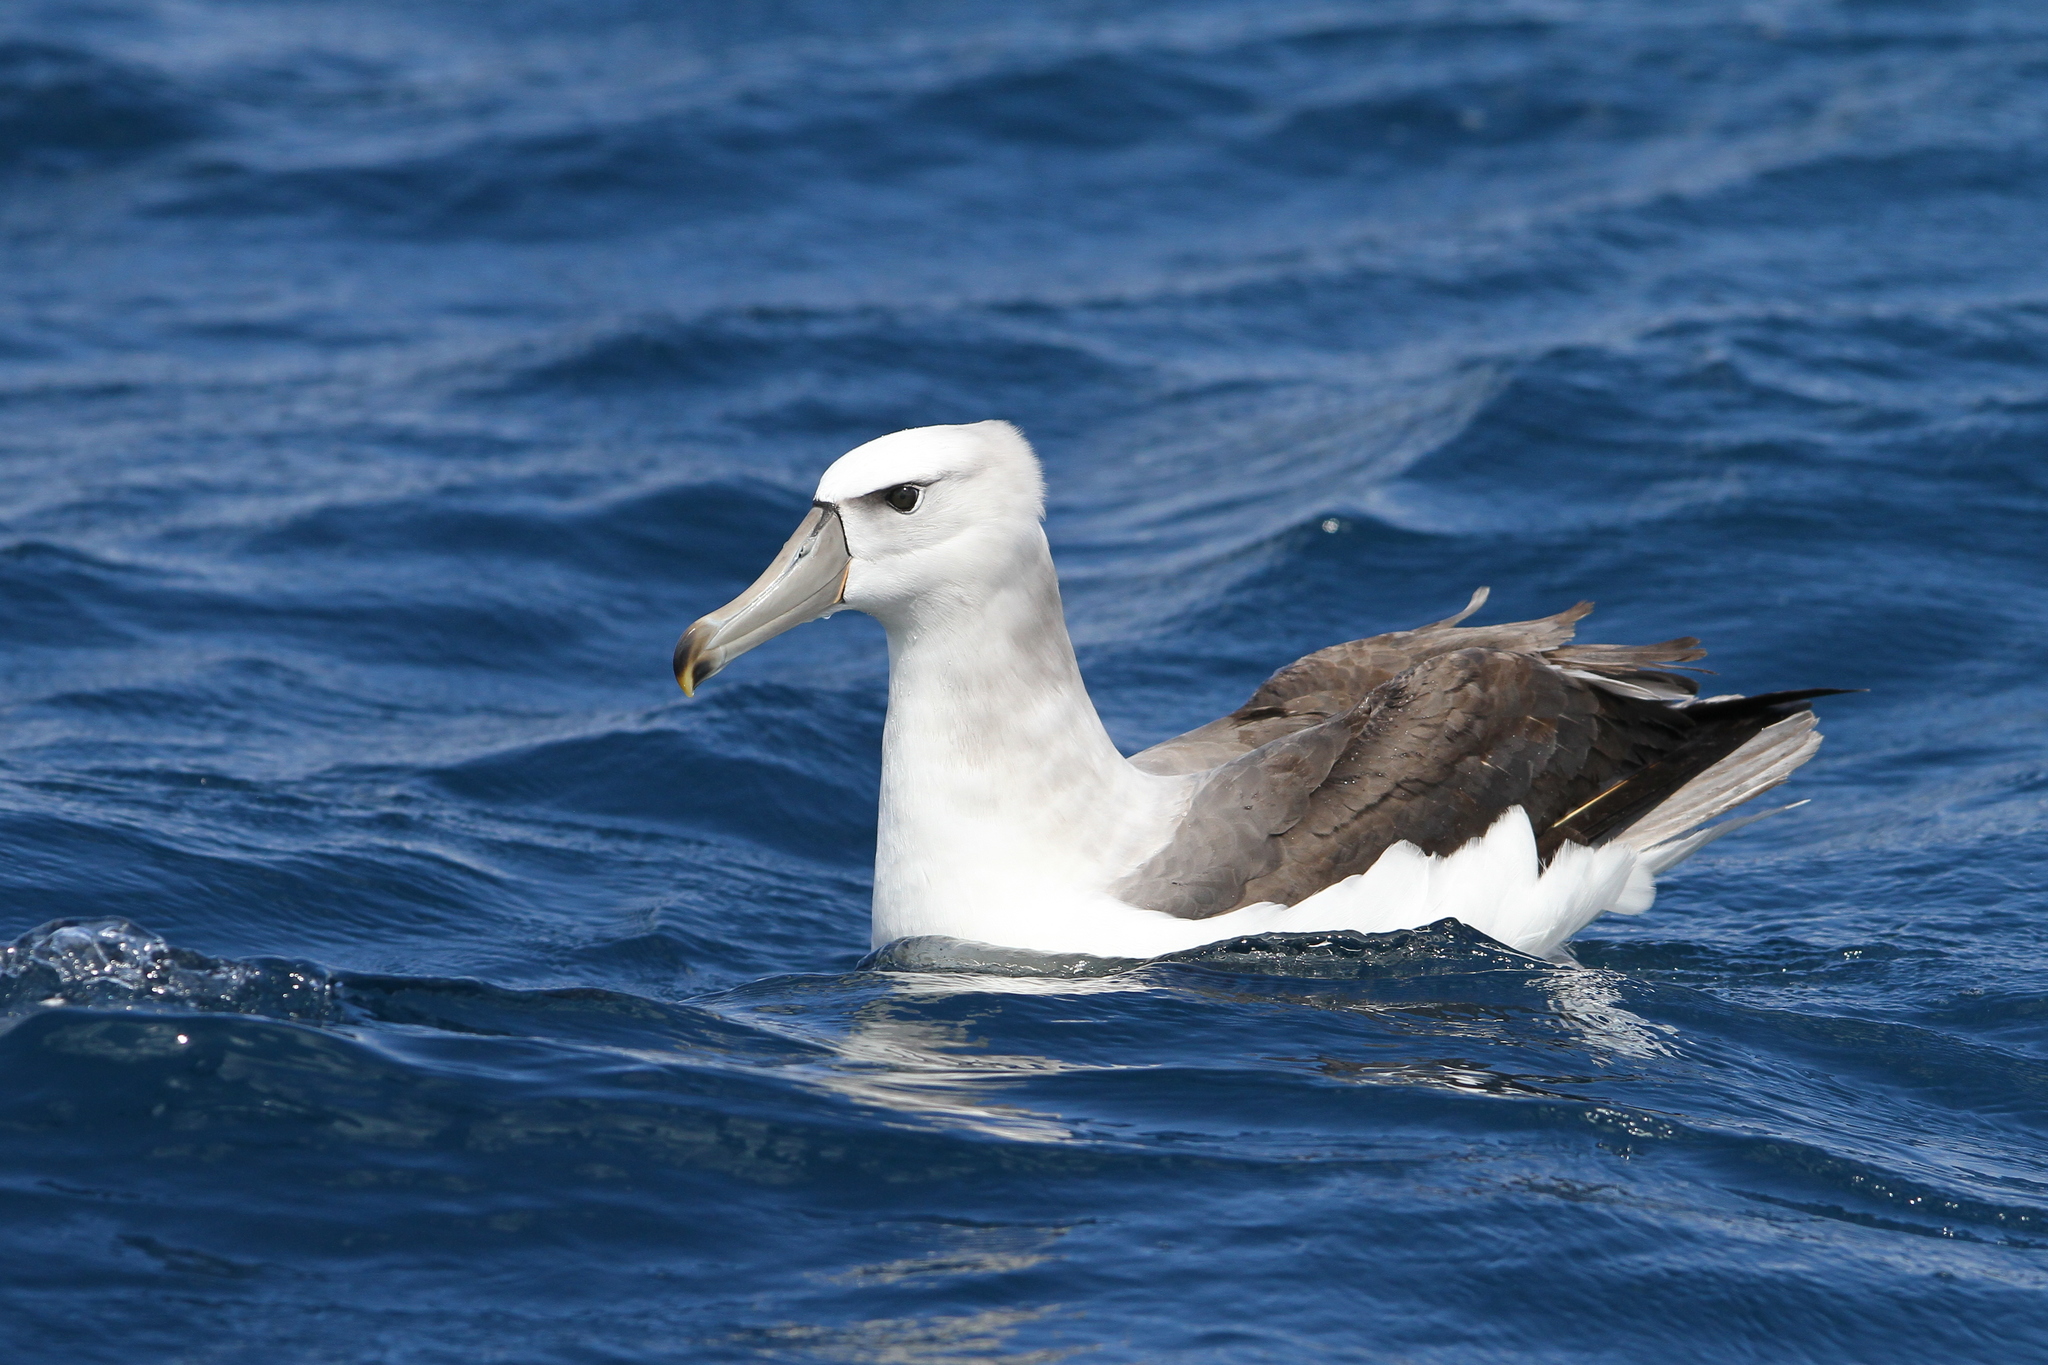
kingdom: Animalia
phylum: Chordata
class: Aves
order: Procellariiformes
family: Diomedeidae
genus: Thalassarche
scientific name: Thalassarche cauta
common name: Shy albatross
